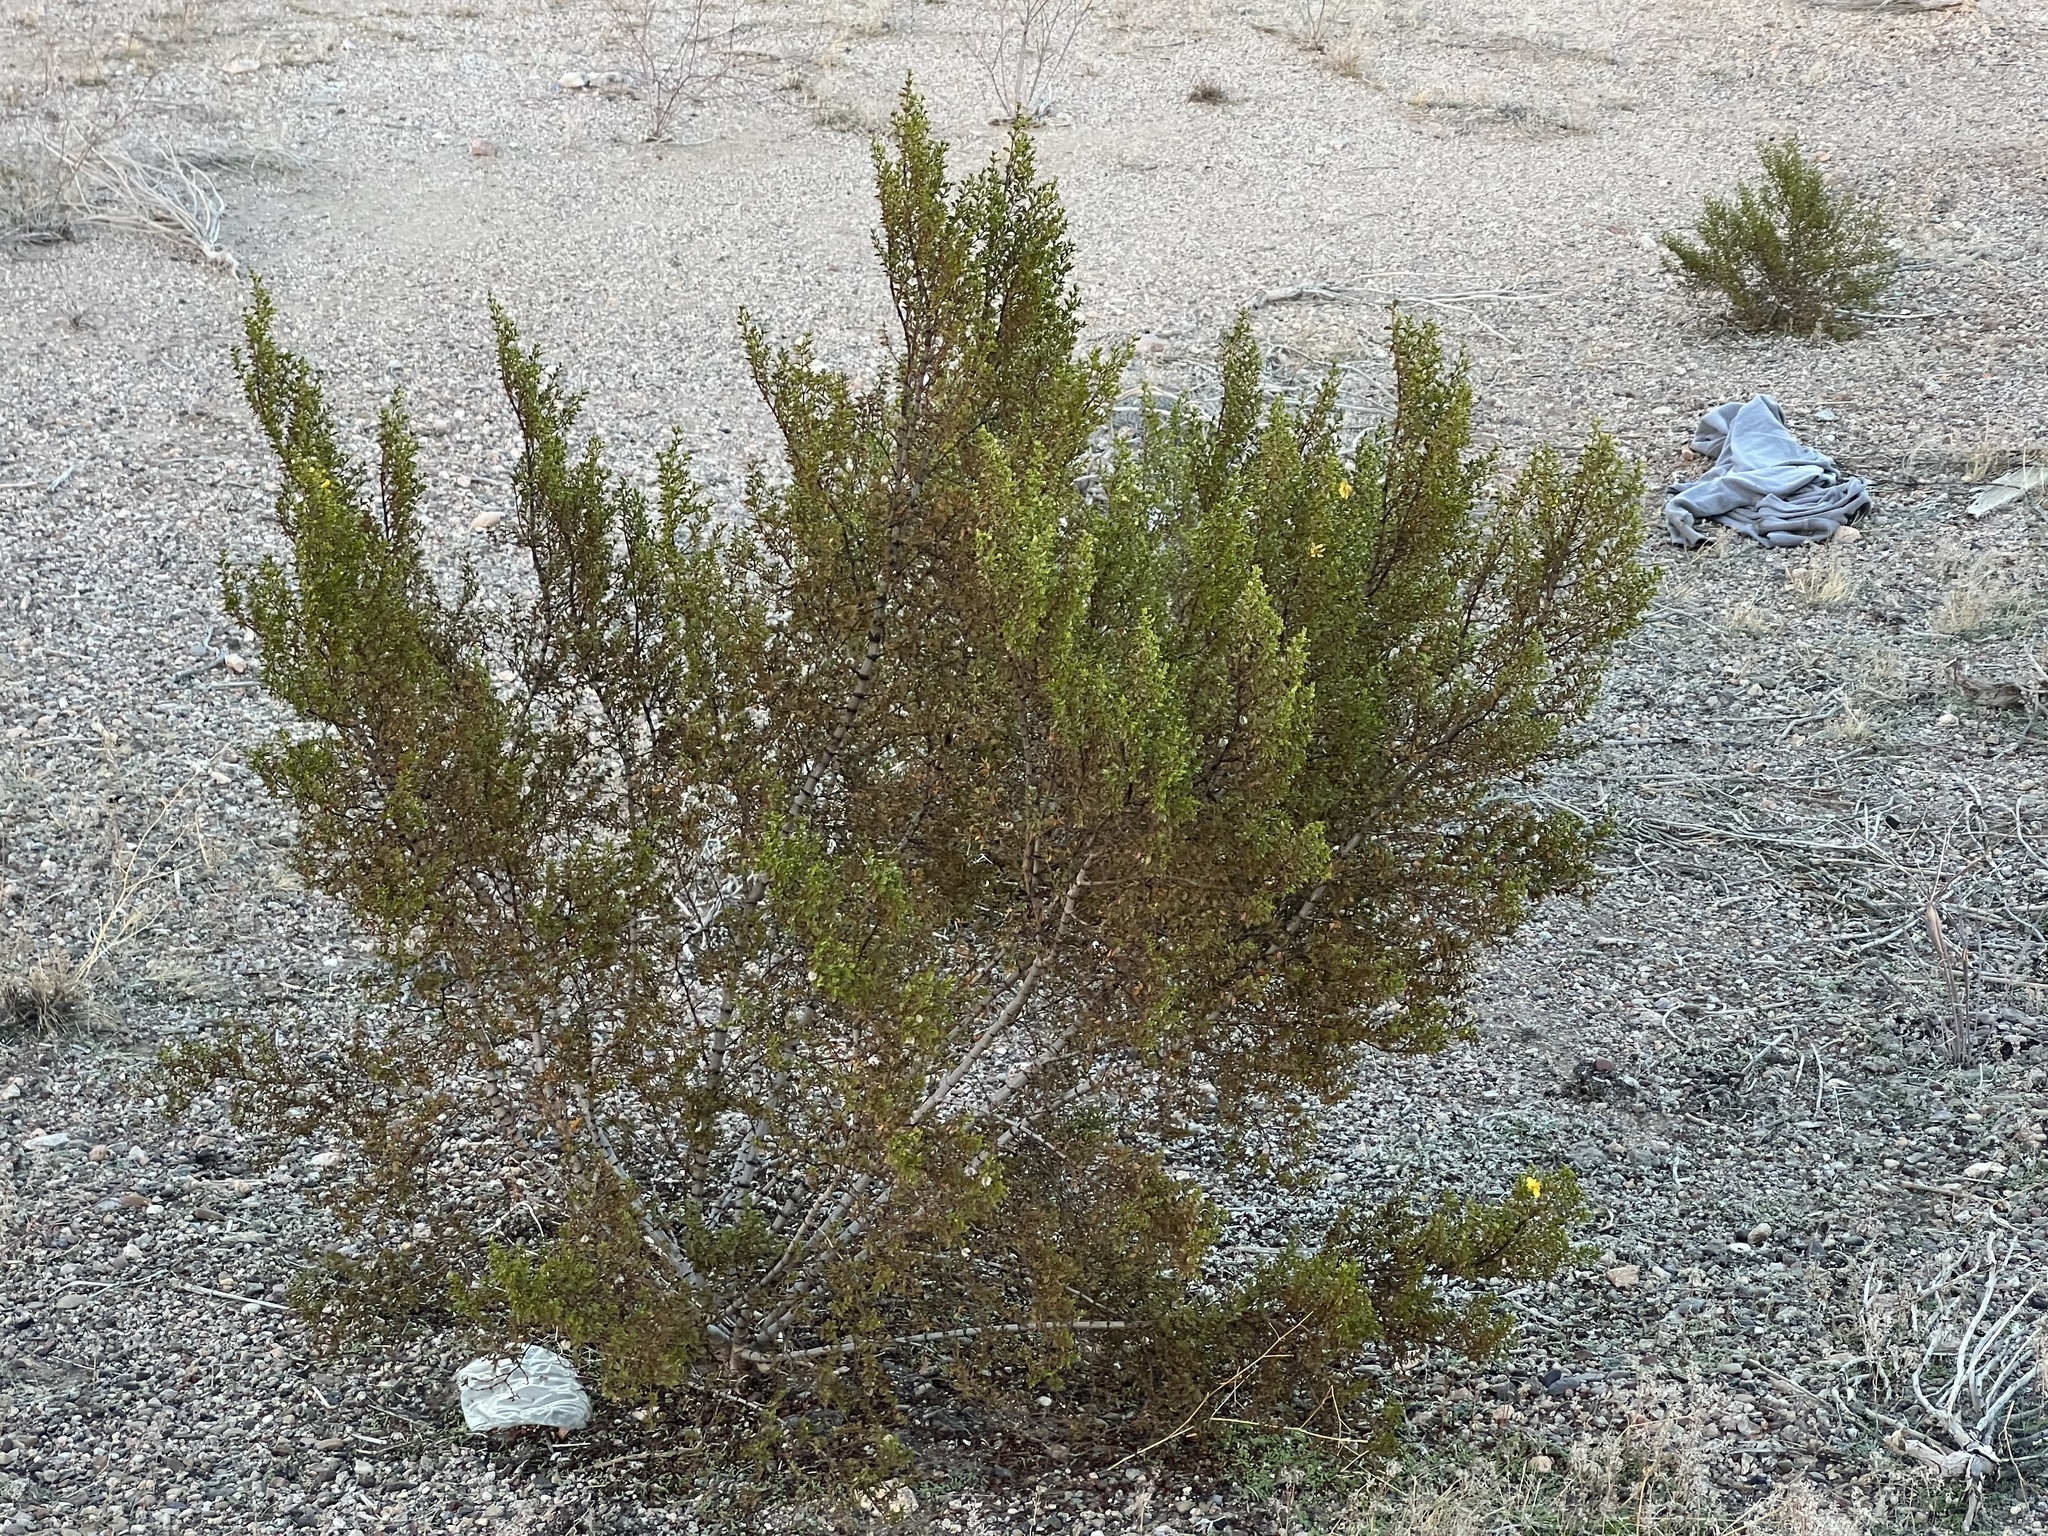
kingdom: Plantae
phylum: Tracheophyta
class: Magnoliopsida
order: Zygophyllales
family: Zygophyllaceae
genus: Larrea
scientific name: Larrea tridentata
